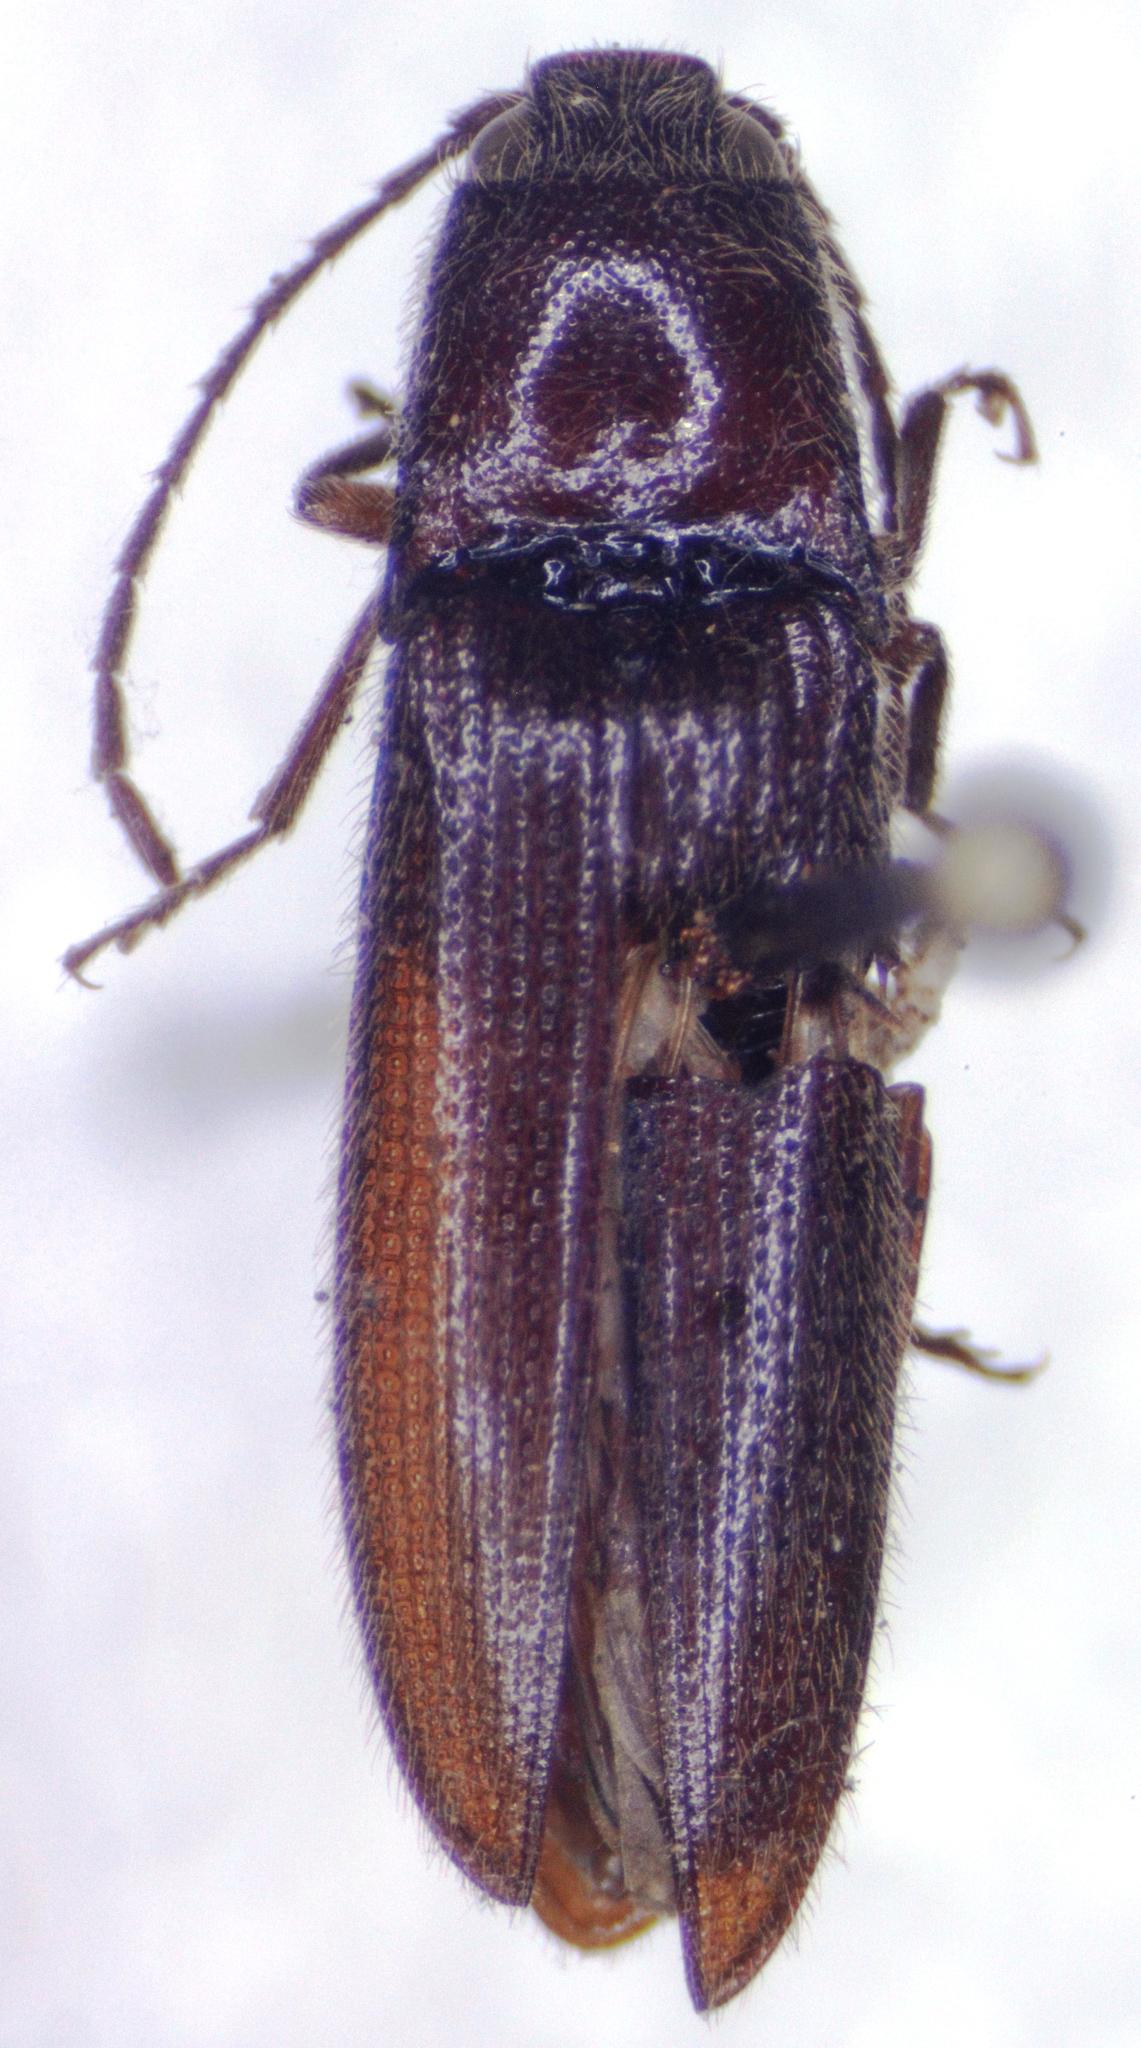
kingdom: Animalia
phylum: Arthropoda
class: Insecta
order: Coleoptera
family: Elateridae
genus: Dipropus
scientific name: Dipropus
